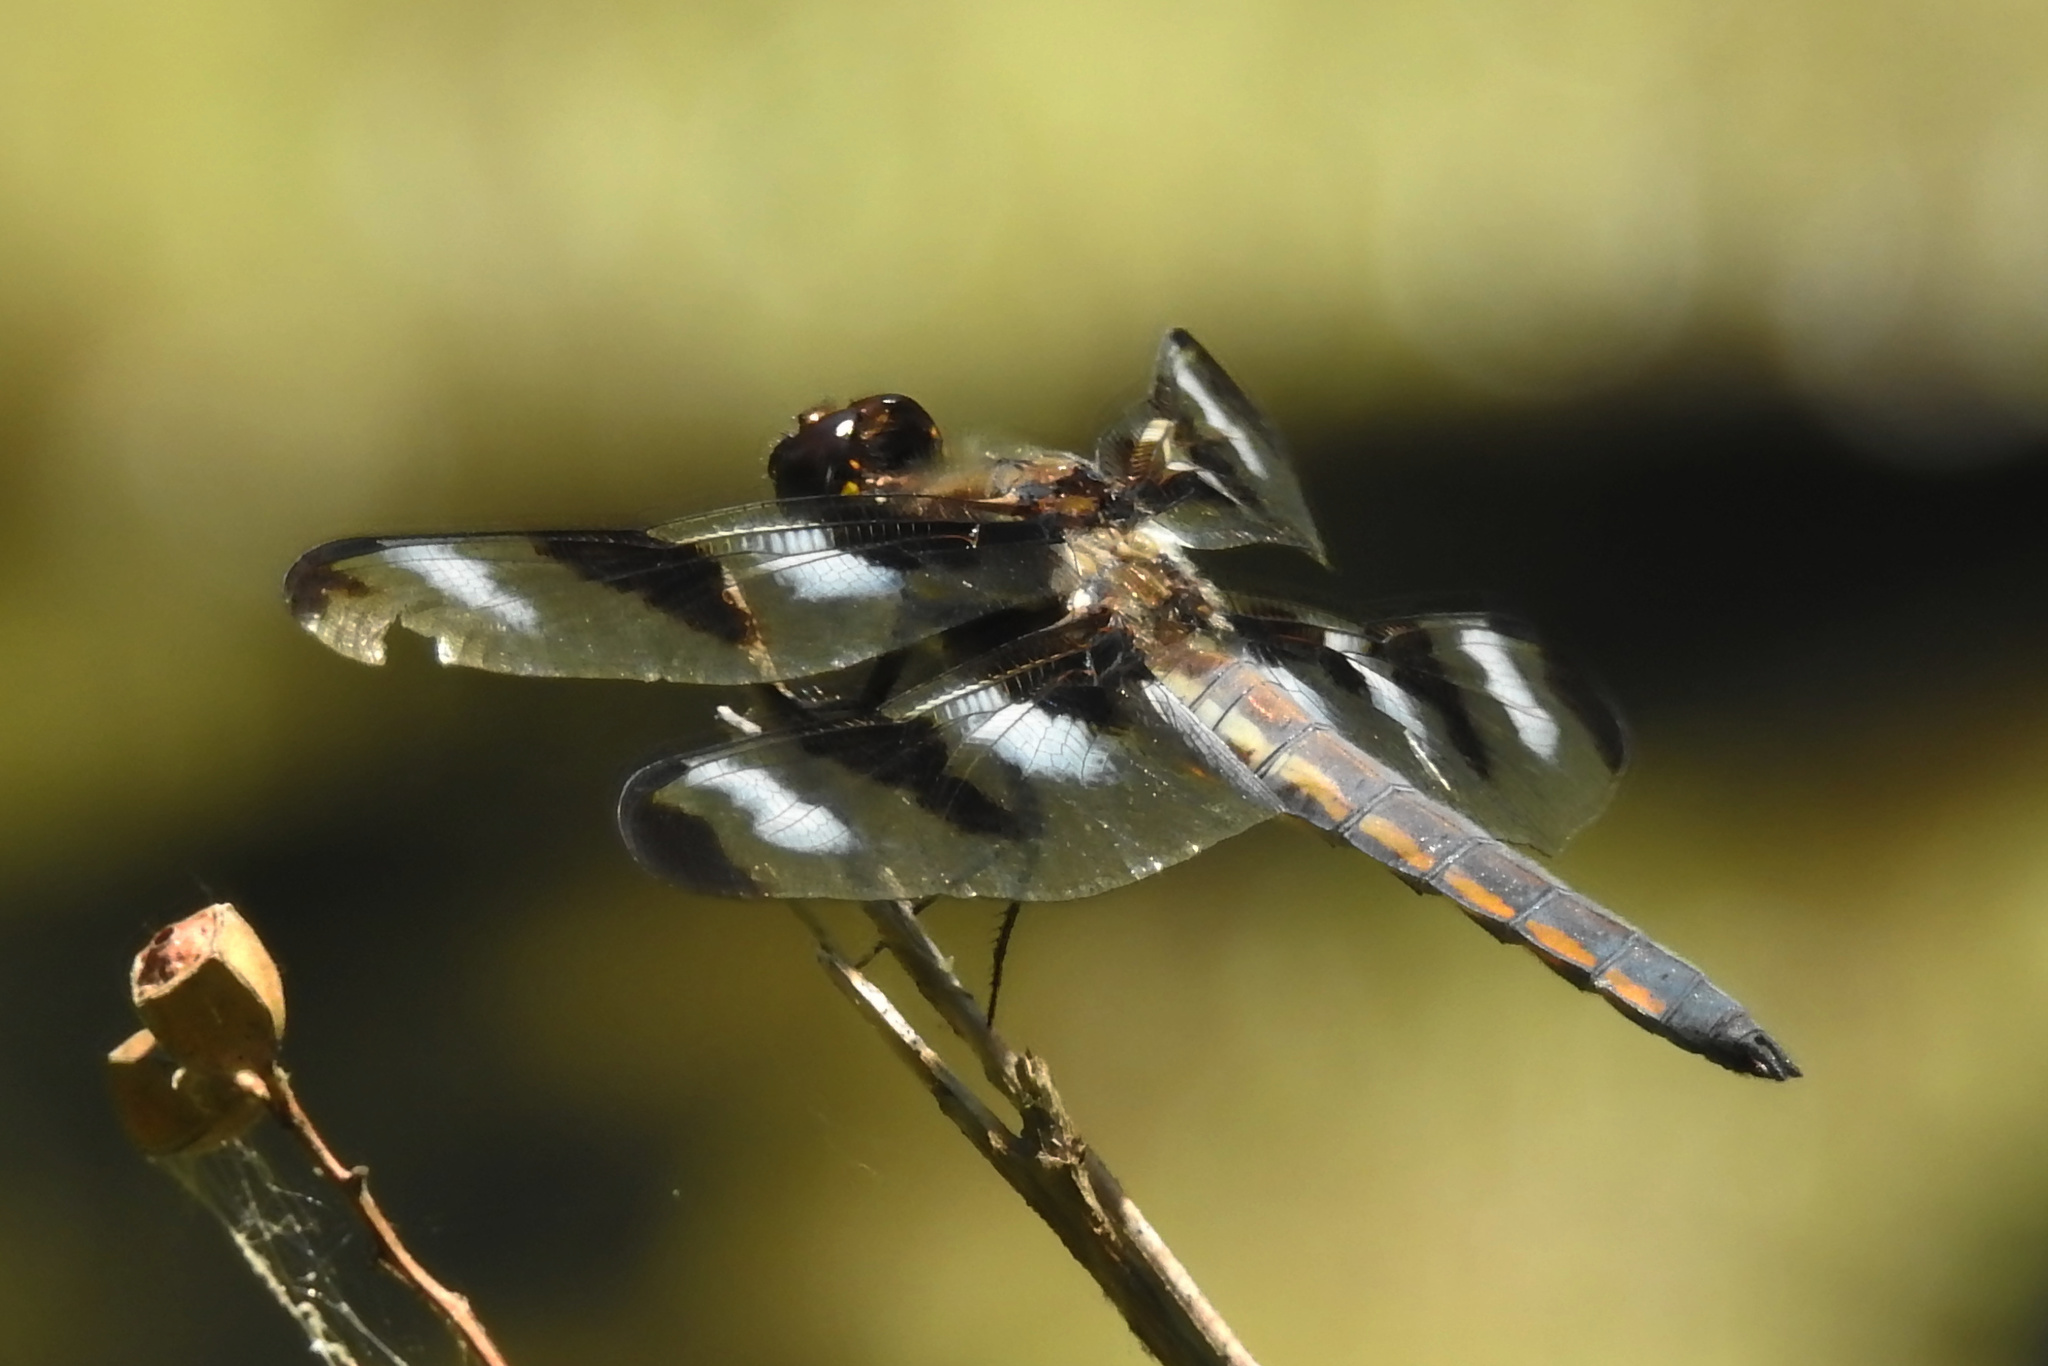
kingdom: Animalia
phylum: Arthropoda
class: Insecta
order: Odonata
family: Libellulidae
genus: Libellula
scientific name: Libellula pulchella
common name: Twelve-spotted skimmer
